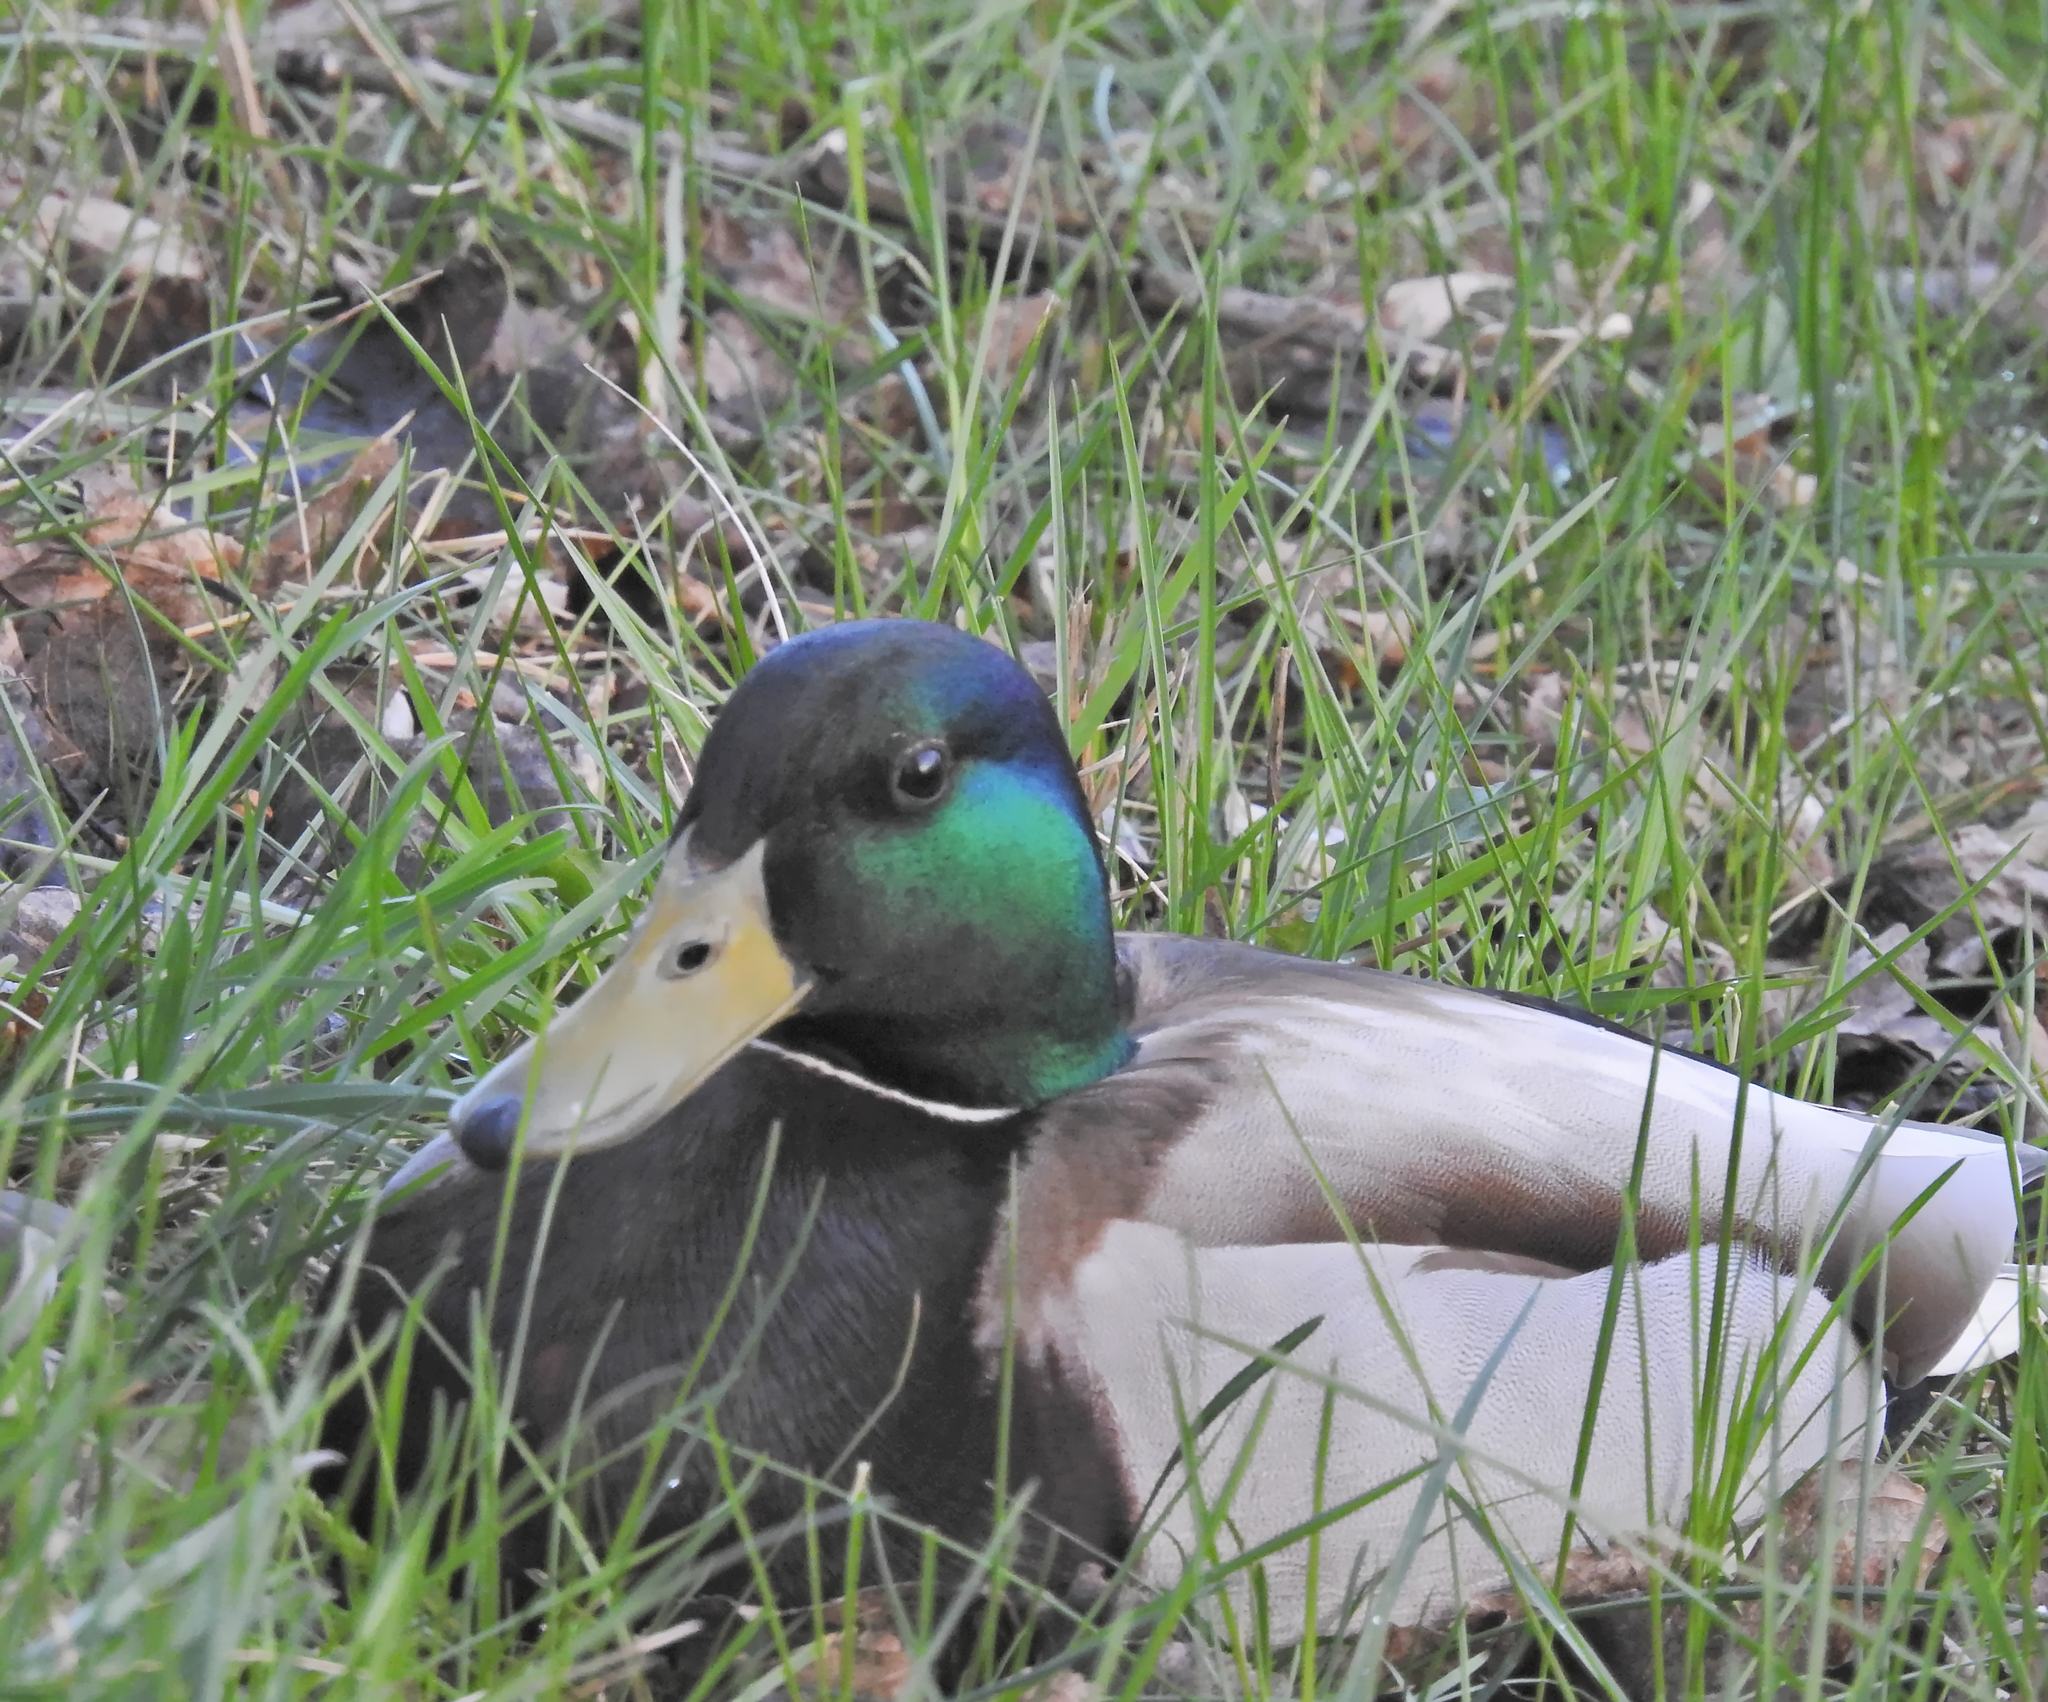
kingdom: Animalia
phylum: Chordata
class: Aves
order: Anseriformes
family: Anatidae
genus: Anas
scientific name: Anas platyrhynchos
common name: Mallard
